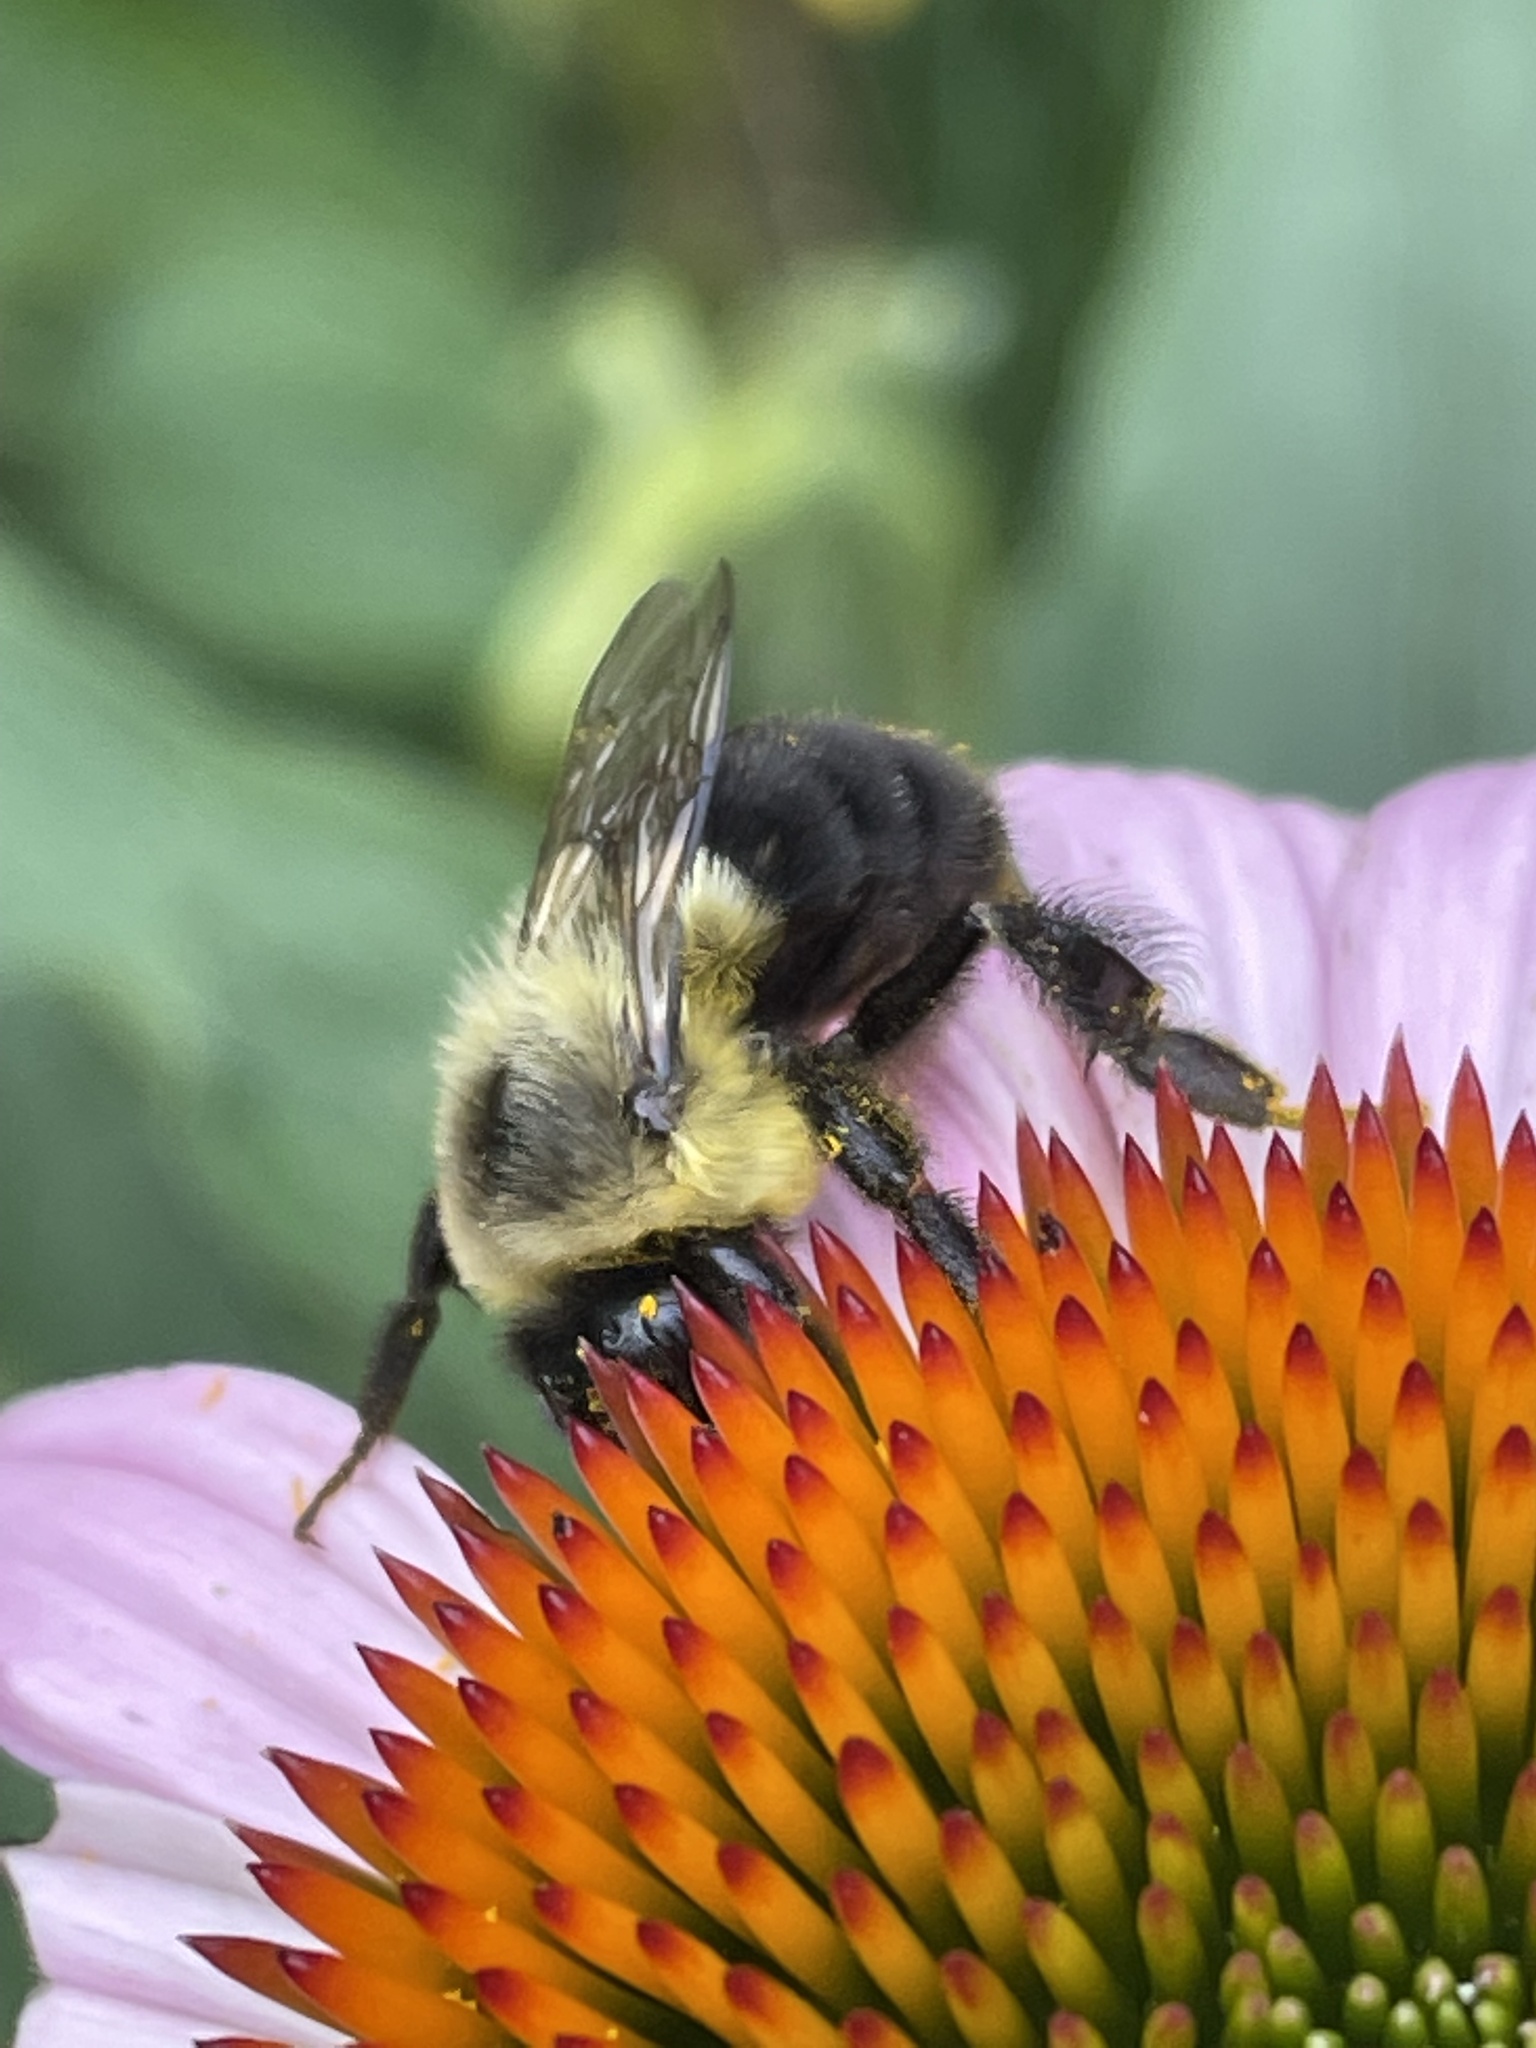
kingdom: Animalia
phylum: Arthropoda
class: Insecta
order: Hymenoptera
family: Apidae
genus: Bombus
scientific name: Bombus impatiens
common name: Common eastern bumble bee
